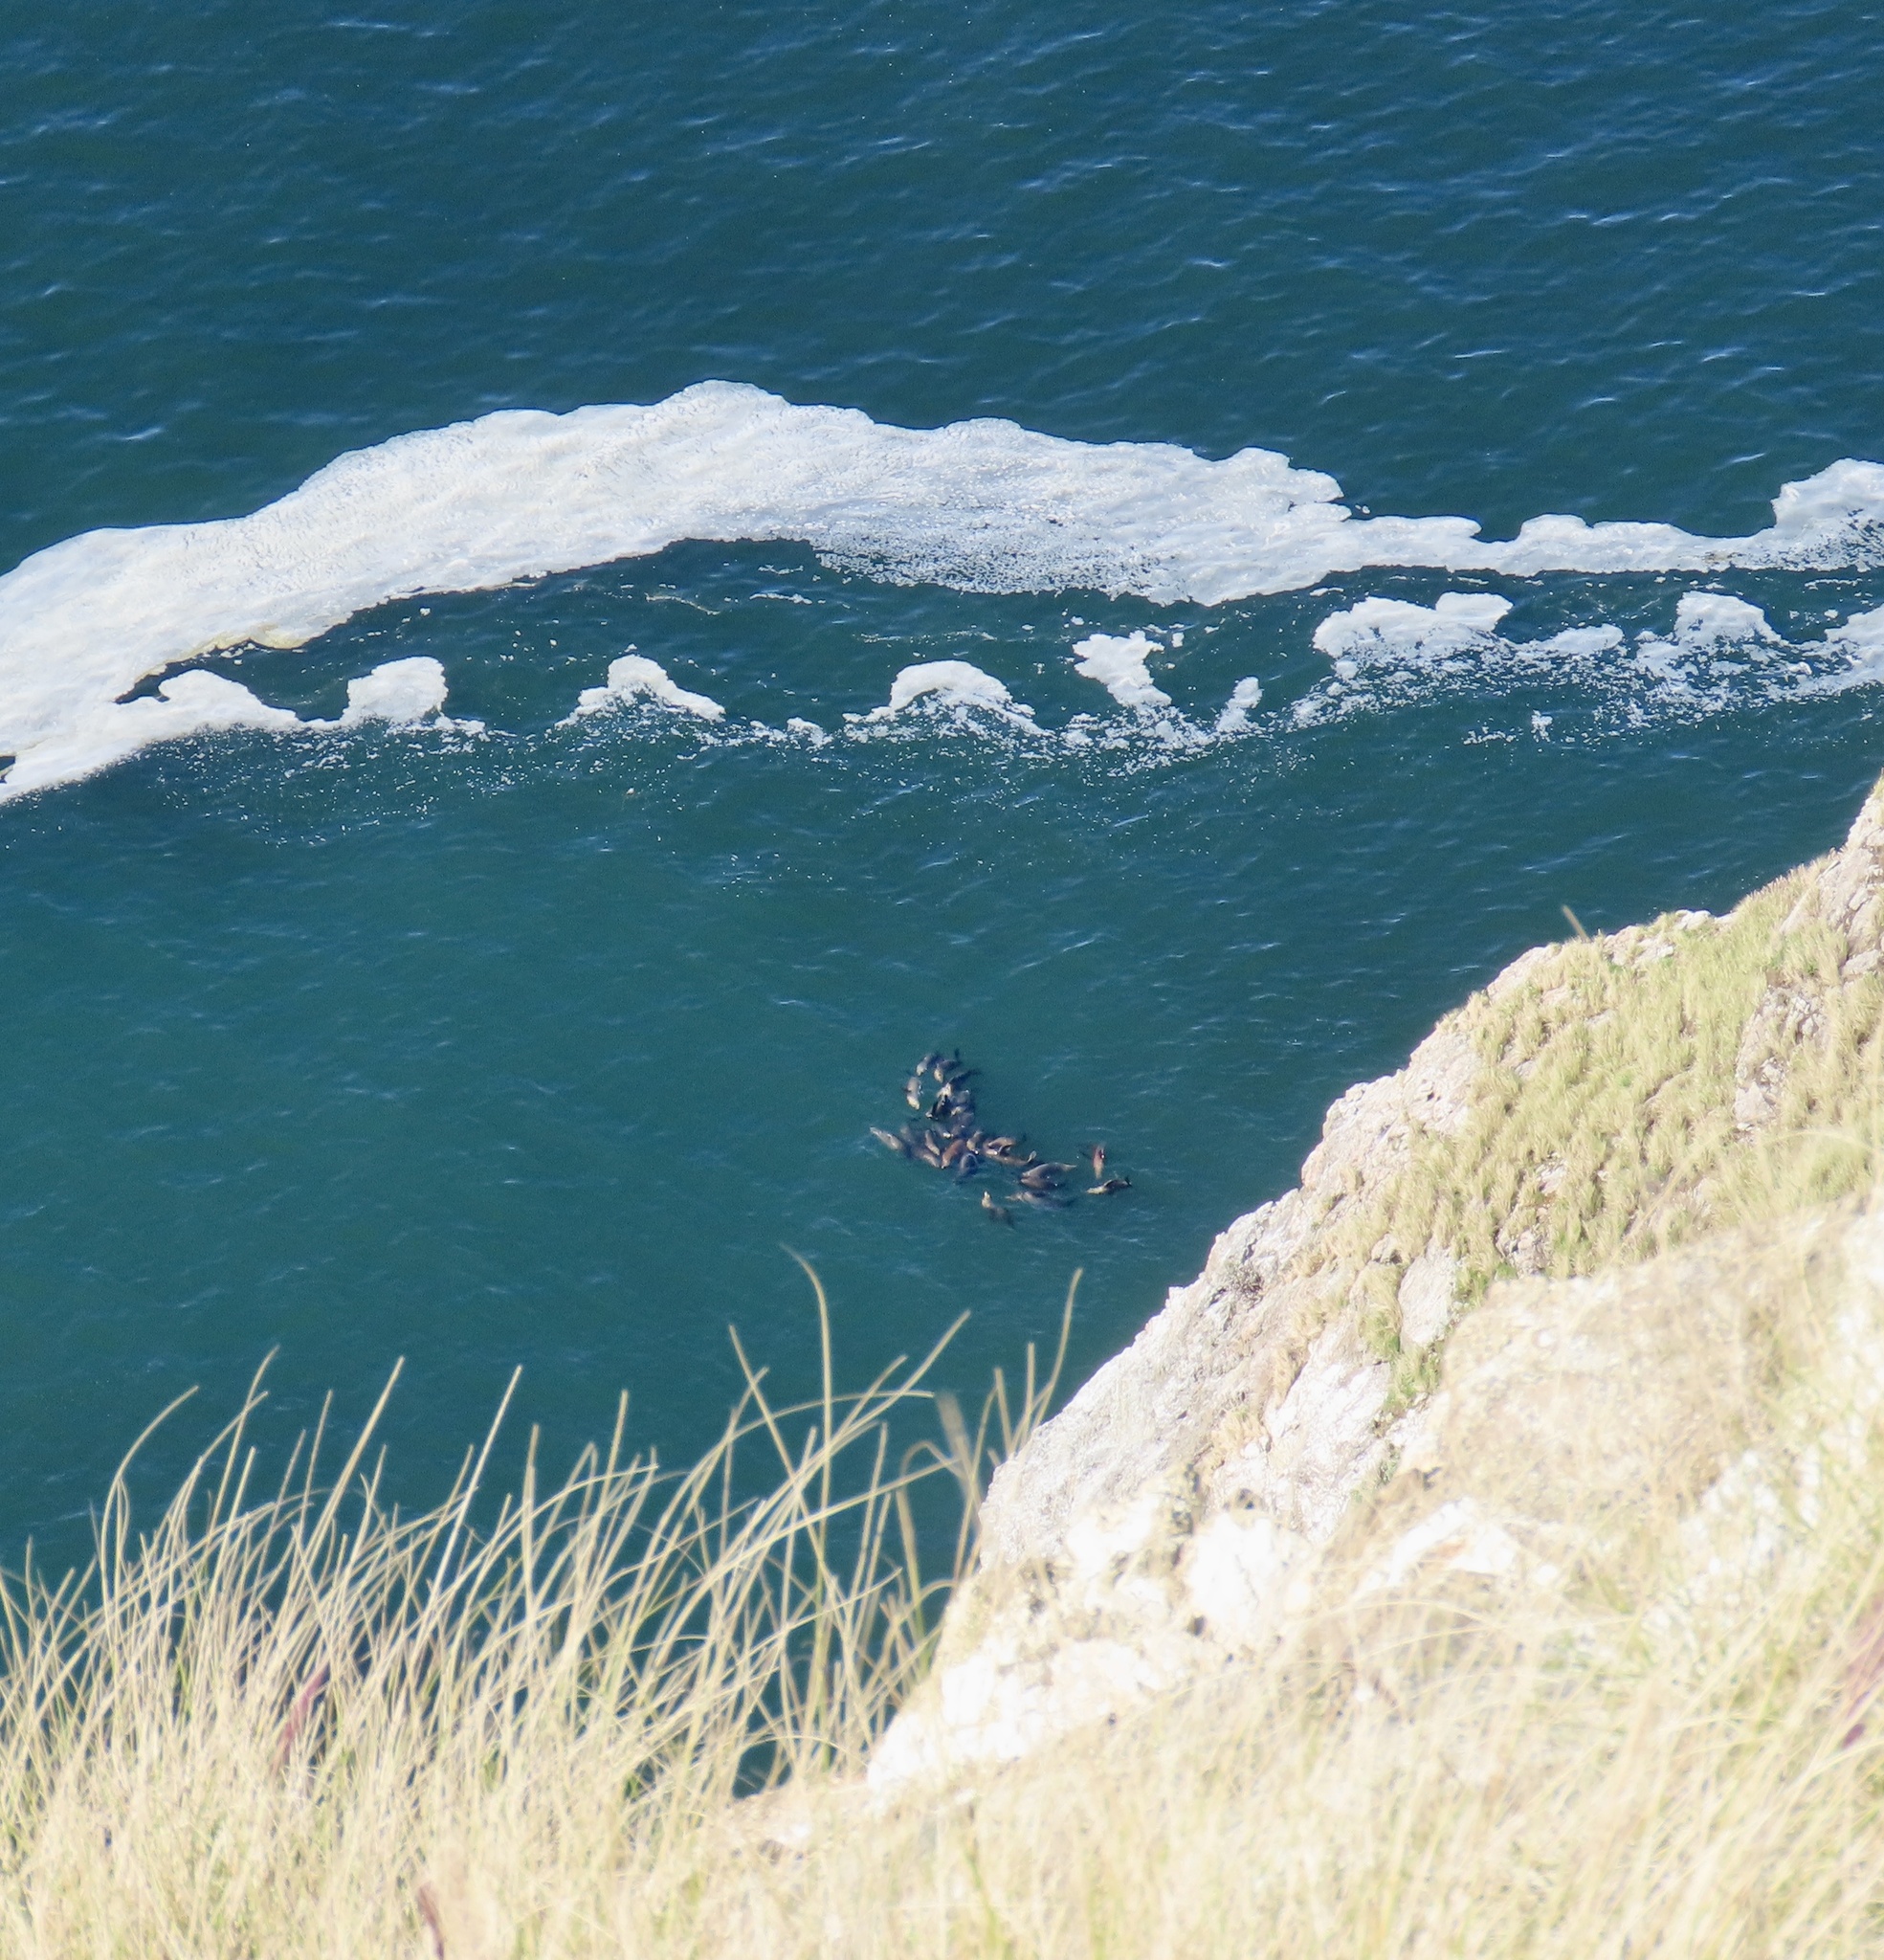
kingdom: Animalia
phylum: Chordata
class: Mammalia
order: Carnivora
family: Otariidae
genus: Zalophus
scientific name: Zalophus californianus
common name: California sea lion
